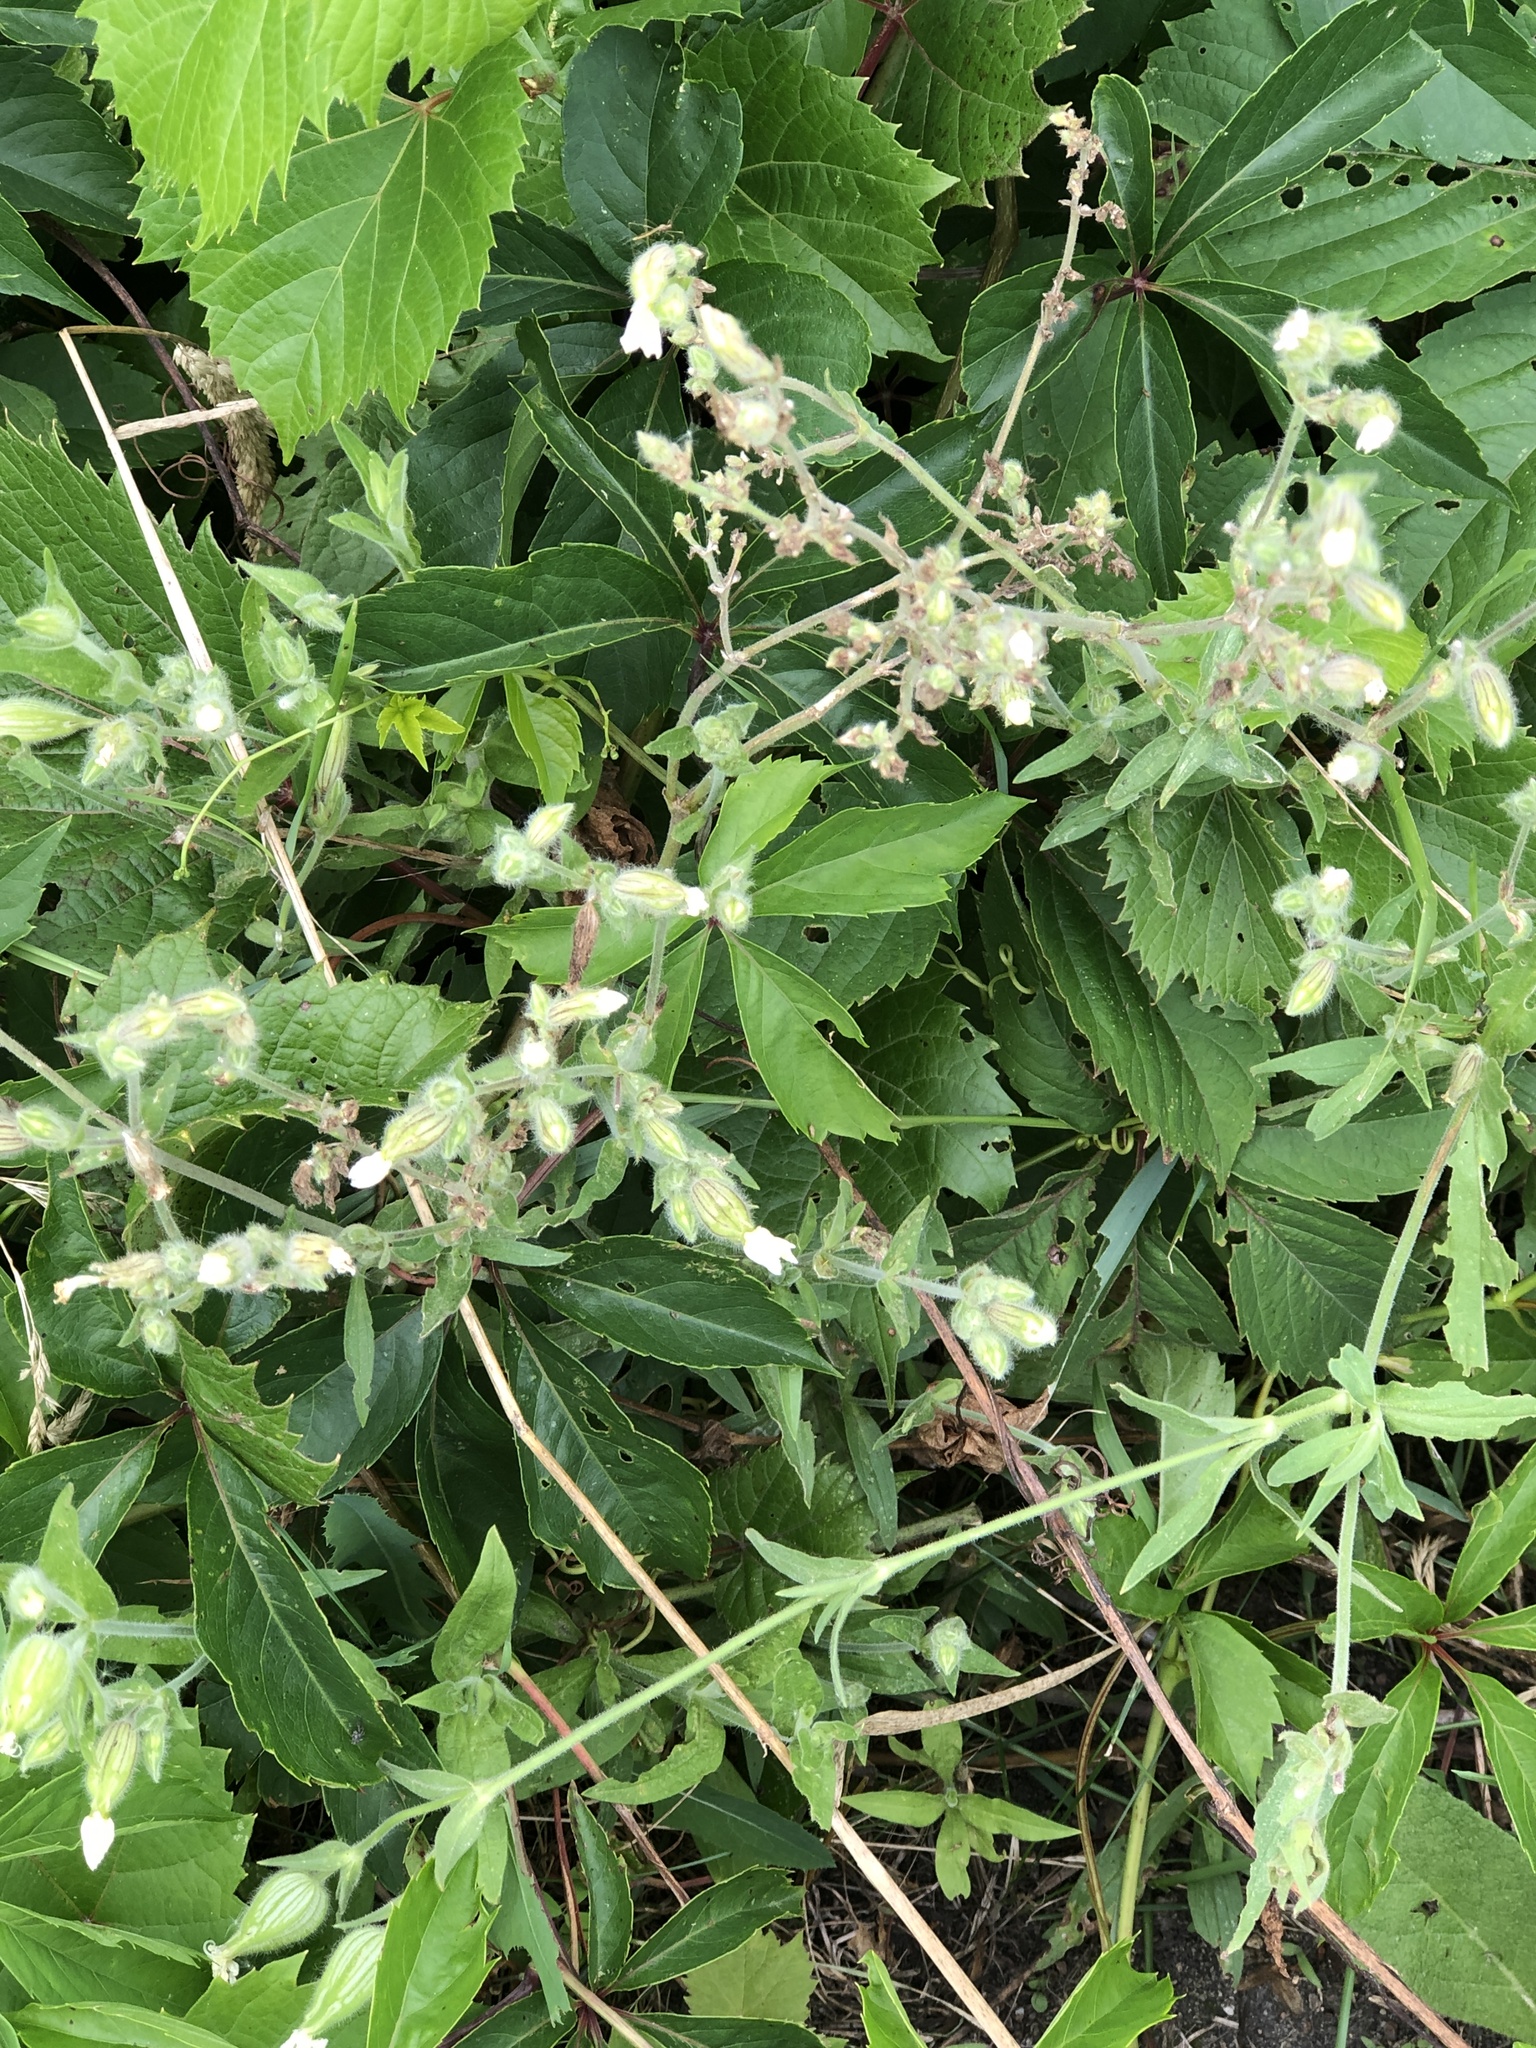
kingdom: Plantae
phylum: Tracheophyta
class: Magnoliopsida
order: Caryophyllales
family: Caryophyllaceae
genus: Silene
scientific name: Silene latifolia
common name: White campion
